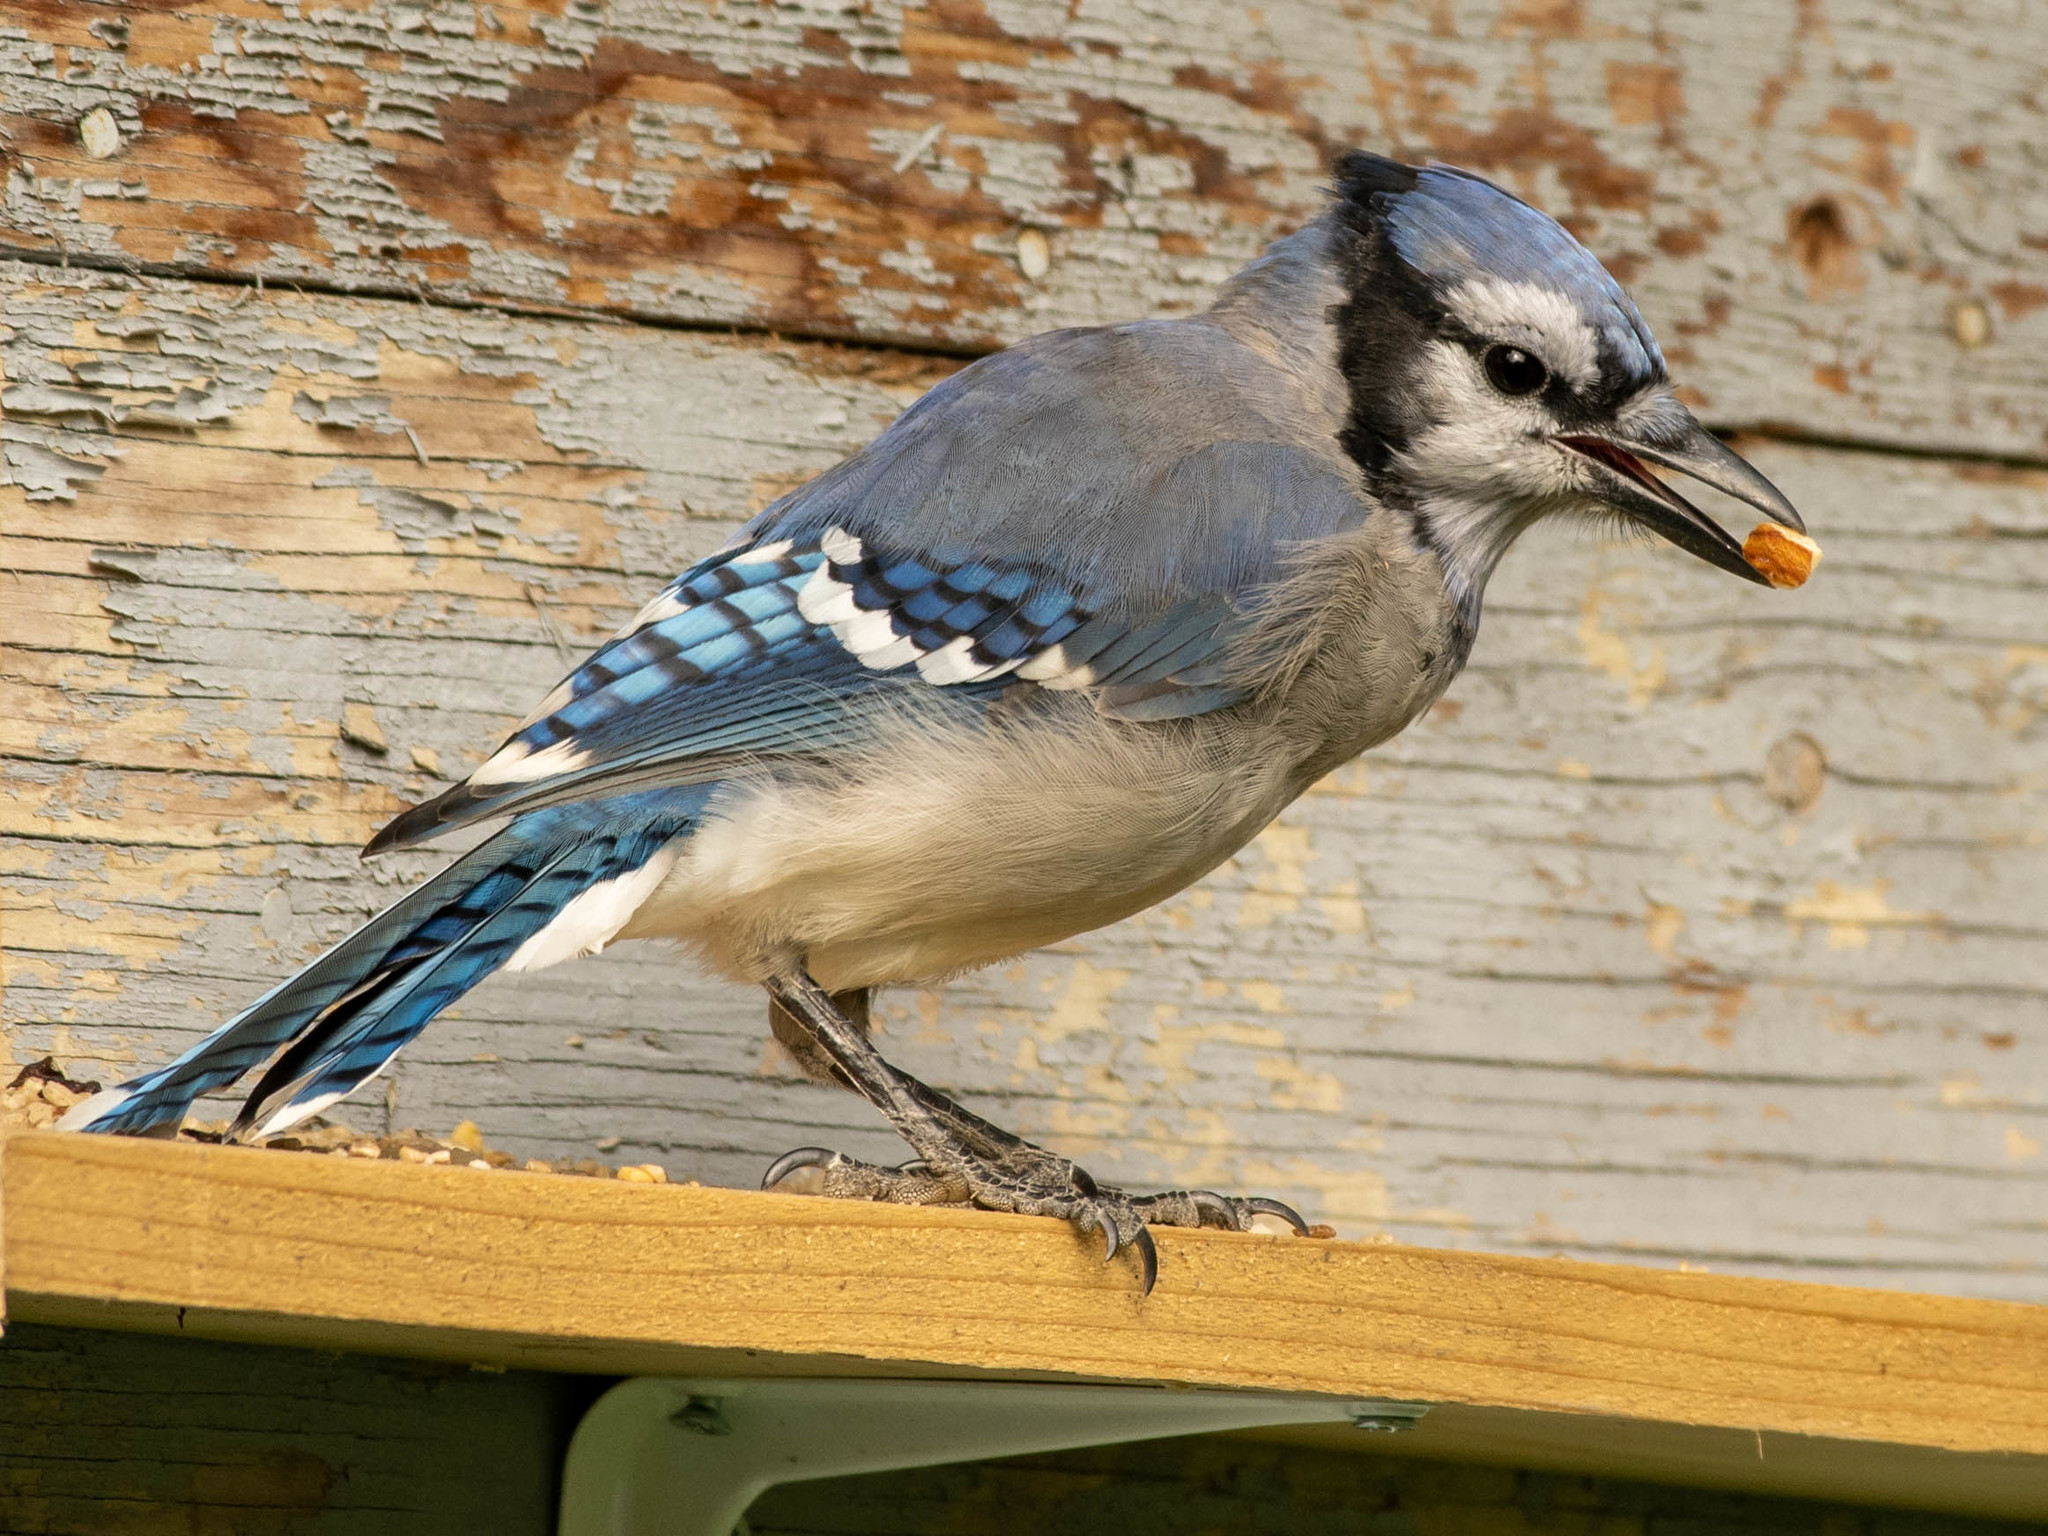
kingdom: Animalia
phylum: Chordata
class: Aves
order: Passeriformes
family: Corvidae
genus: Cyanocitta
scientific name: Cyanocitta cristata
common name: Blue jay
